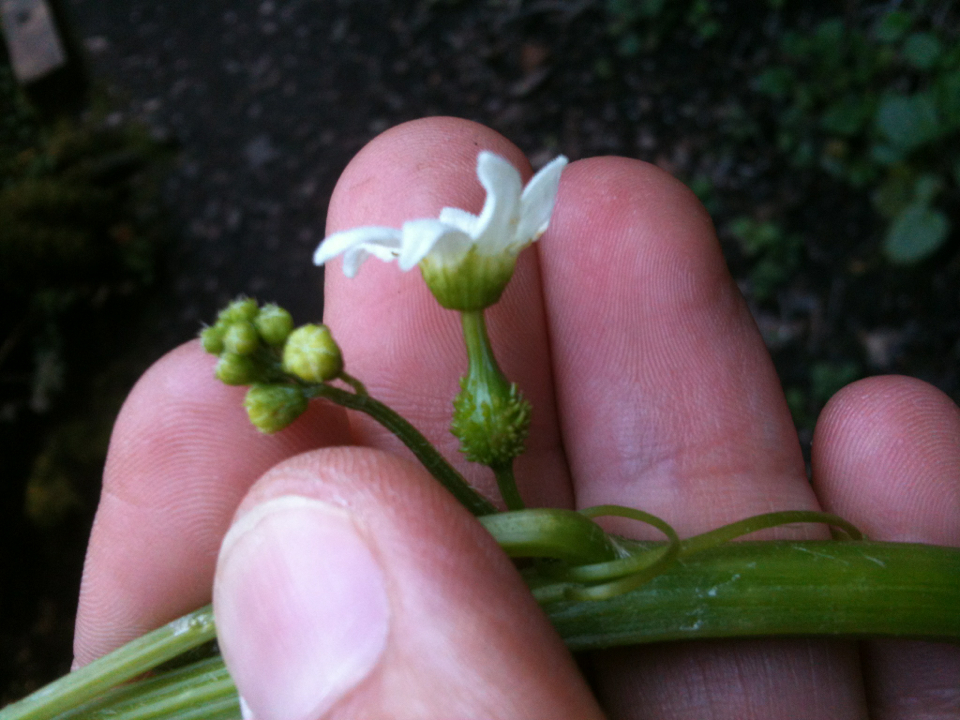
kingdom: Plantae
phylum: Tracheophyta
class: Magnoliopsida
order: Cucurbitales
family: Cucurbitaceae
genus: Marah
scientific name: Marah oregana
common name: Coastal manroot
